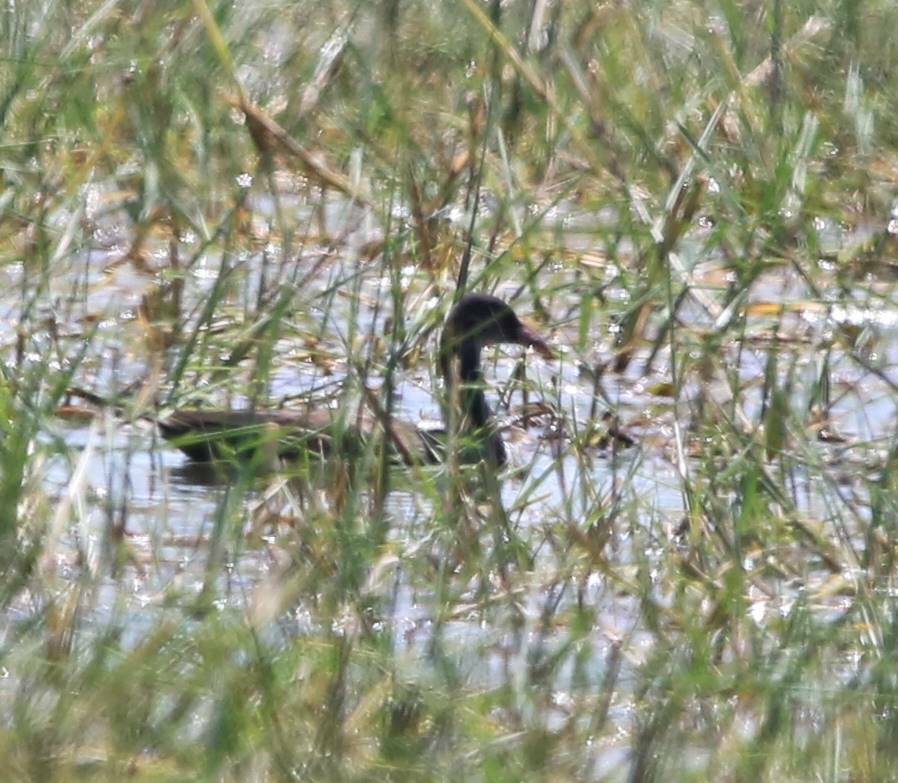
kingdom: Animalia
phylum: Chordata
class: Aves
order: Gruiformes
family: Rallidae
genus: Porphyrio
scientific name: Porphyrio porphyrio
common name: Purple swamphen
